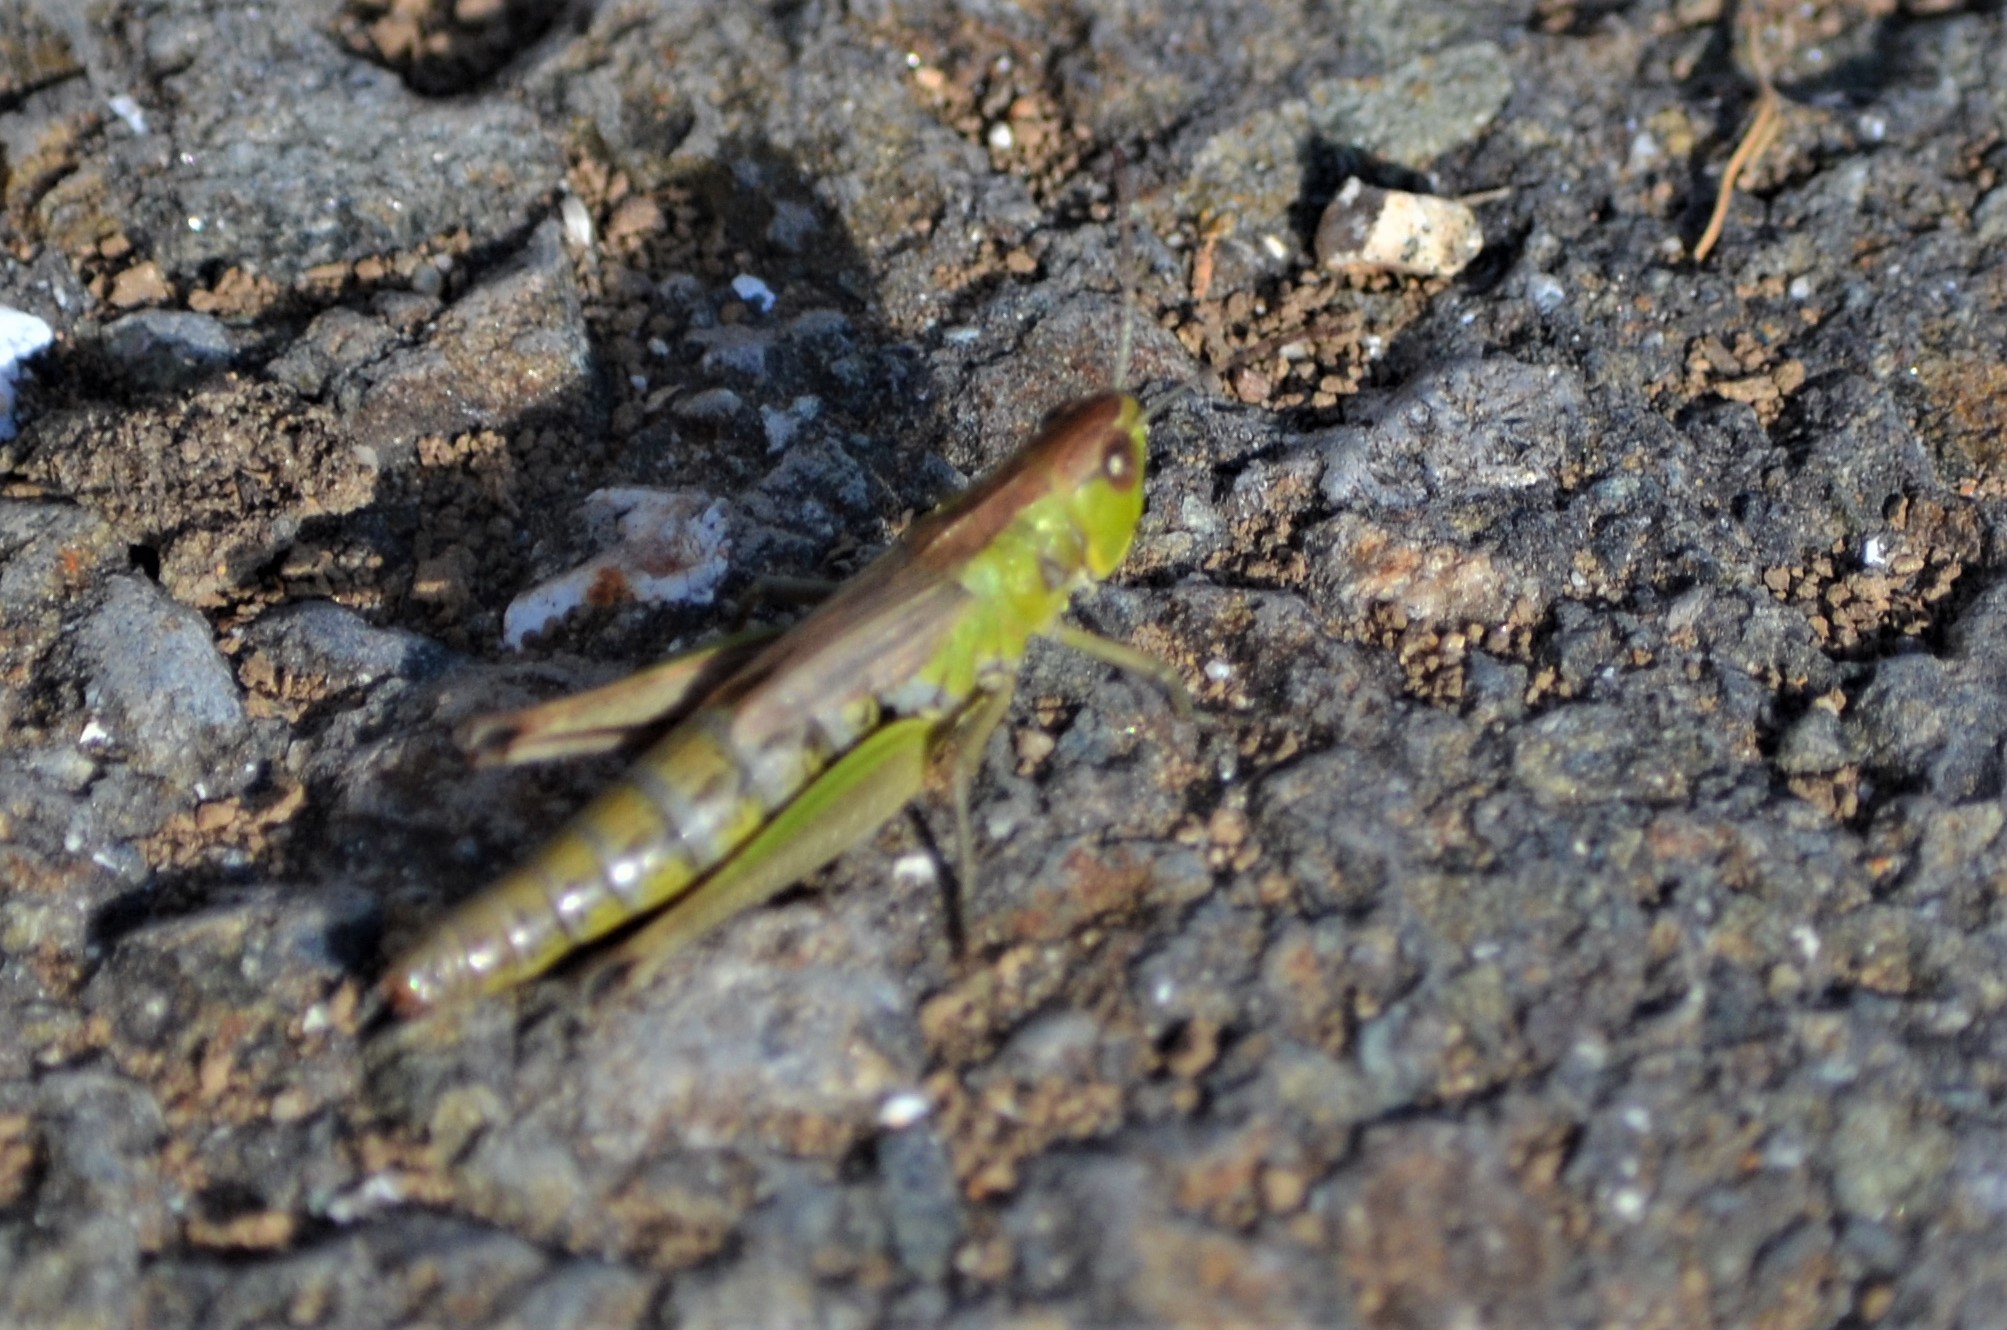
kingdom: Animalia
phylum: Arthropoda
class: Insecta
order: Orthoptera
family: Acrididae
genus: Pseudochorthippus
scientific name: Pseudochorthippus parallelus
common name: Meadow grasshopper
